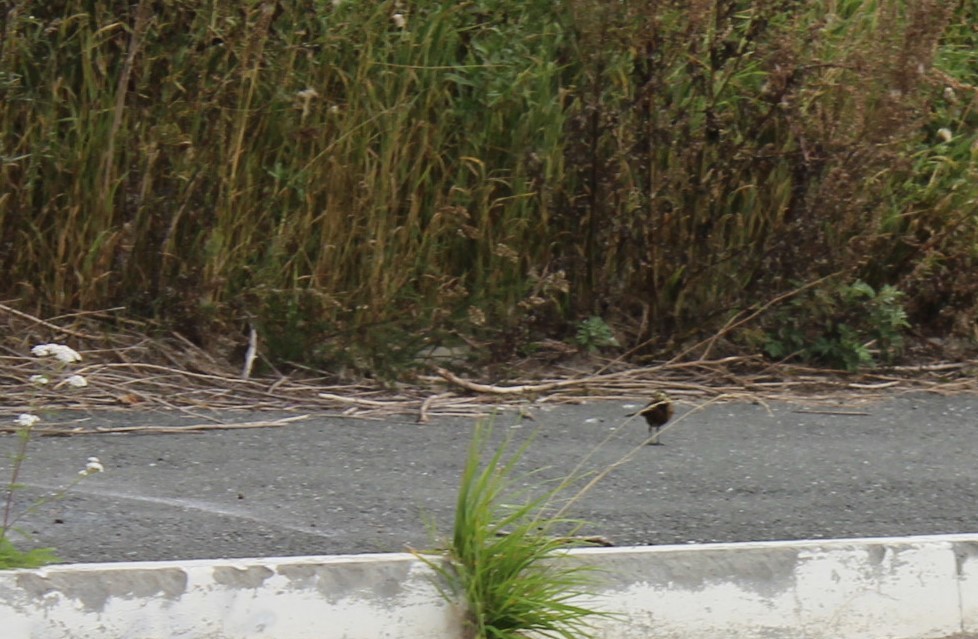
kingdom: Animalia
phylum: Chordata
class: Aves
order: Passeriformes
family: Motacillidae
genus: Motacilla
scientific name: Motacilla alba
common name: White wagtail
